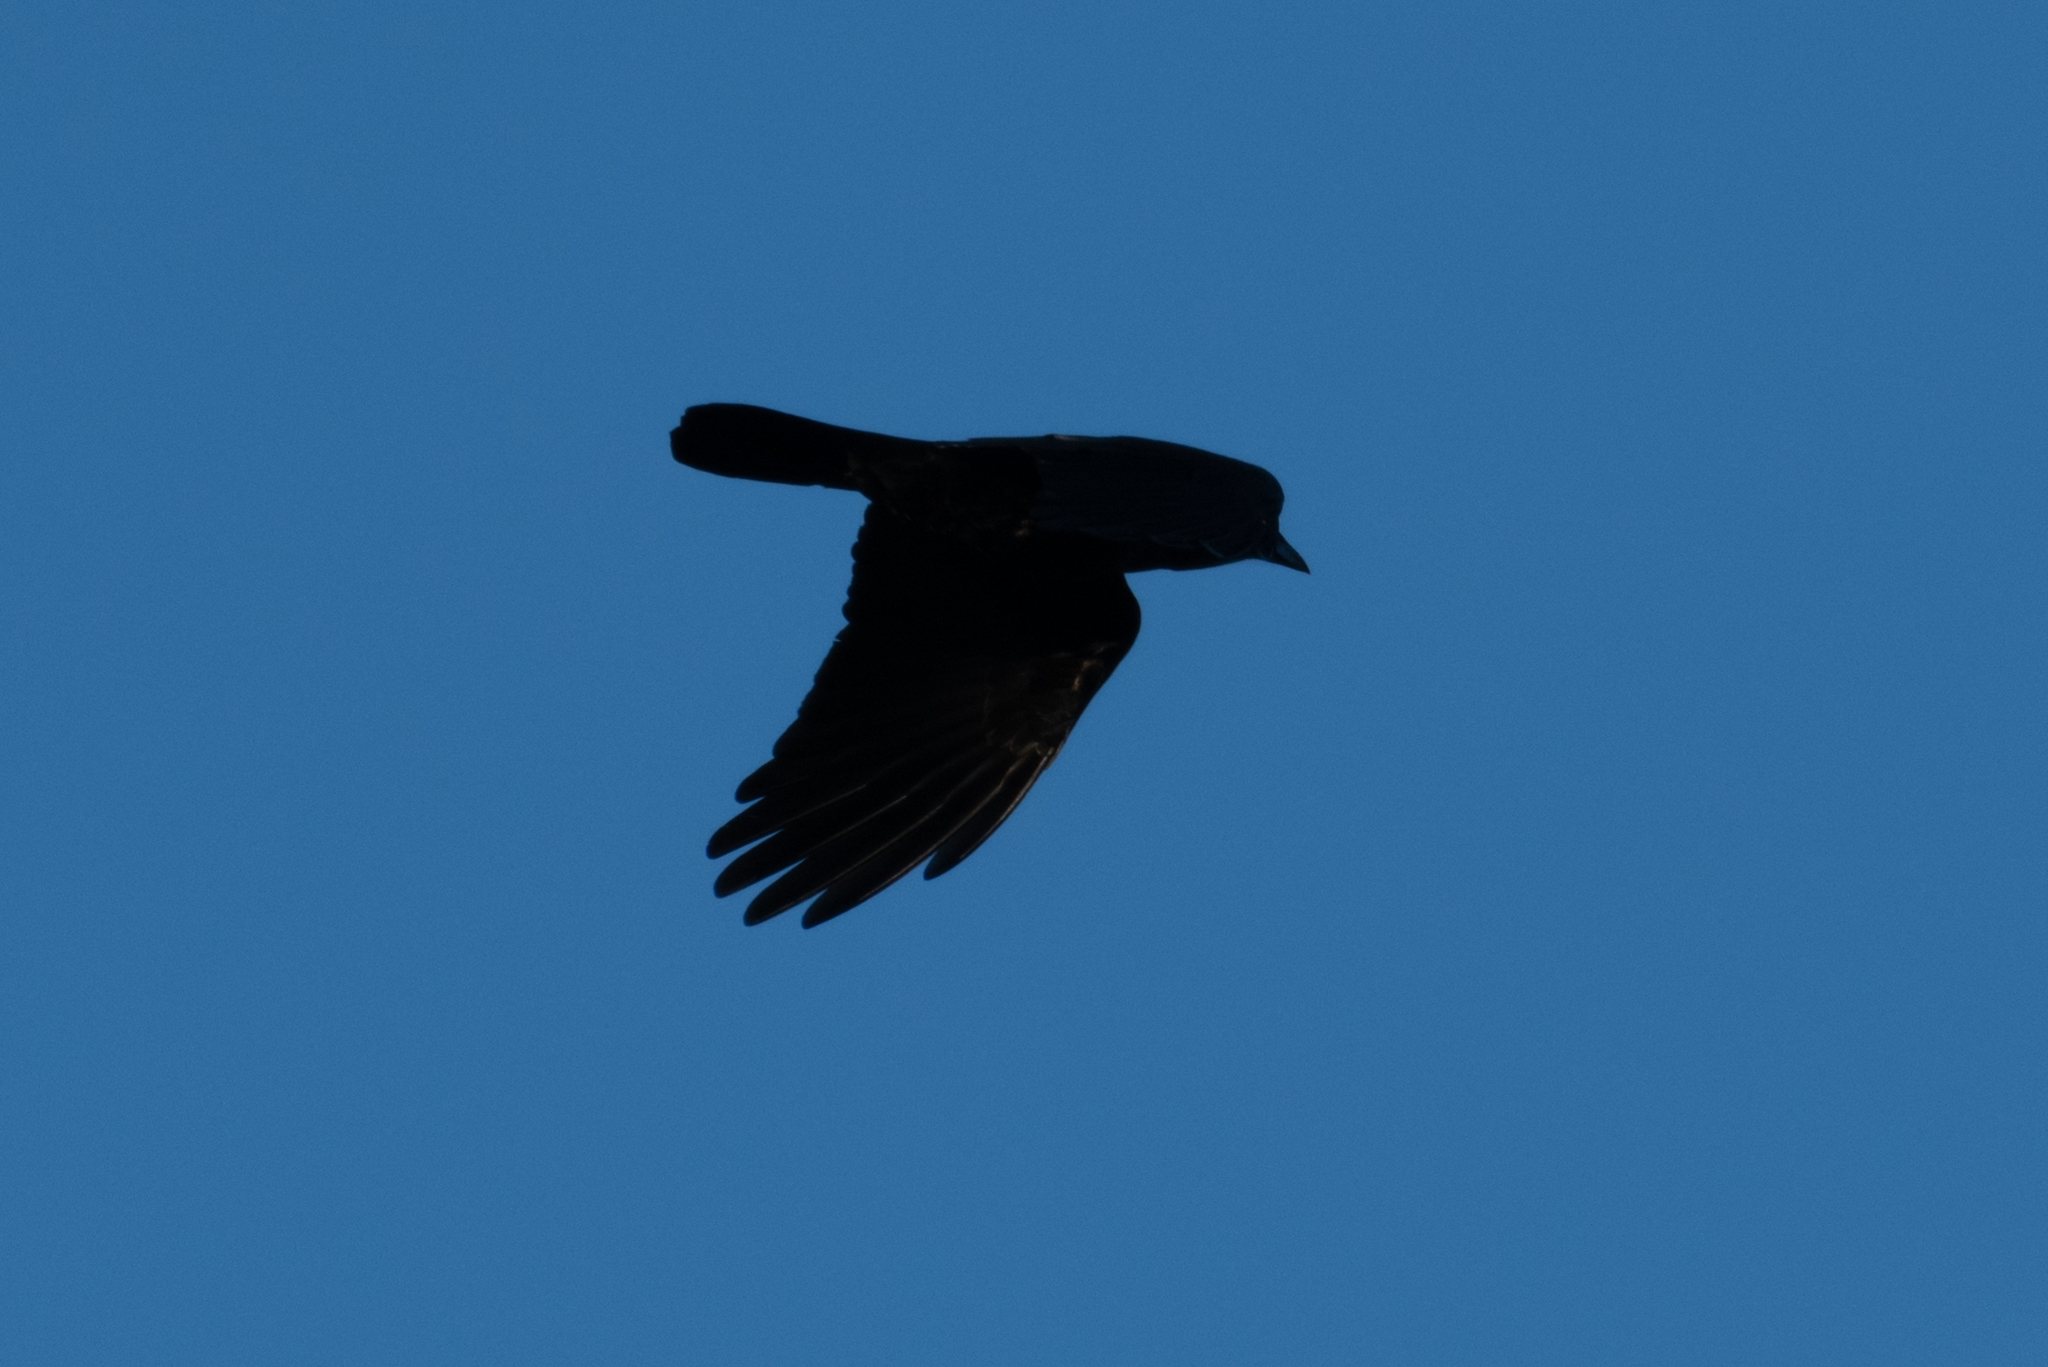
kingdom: Animalia
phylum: Chordata
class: Aves
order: Passeriformes
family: Corvidae
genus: Corvus
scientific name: Corvus brachyrhynchos
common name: American crow
